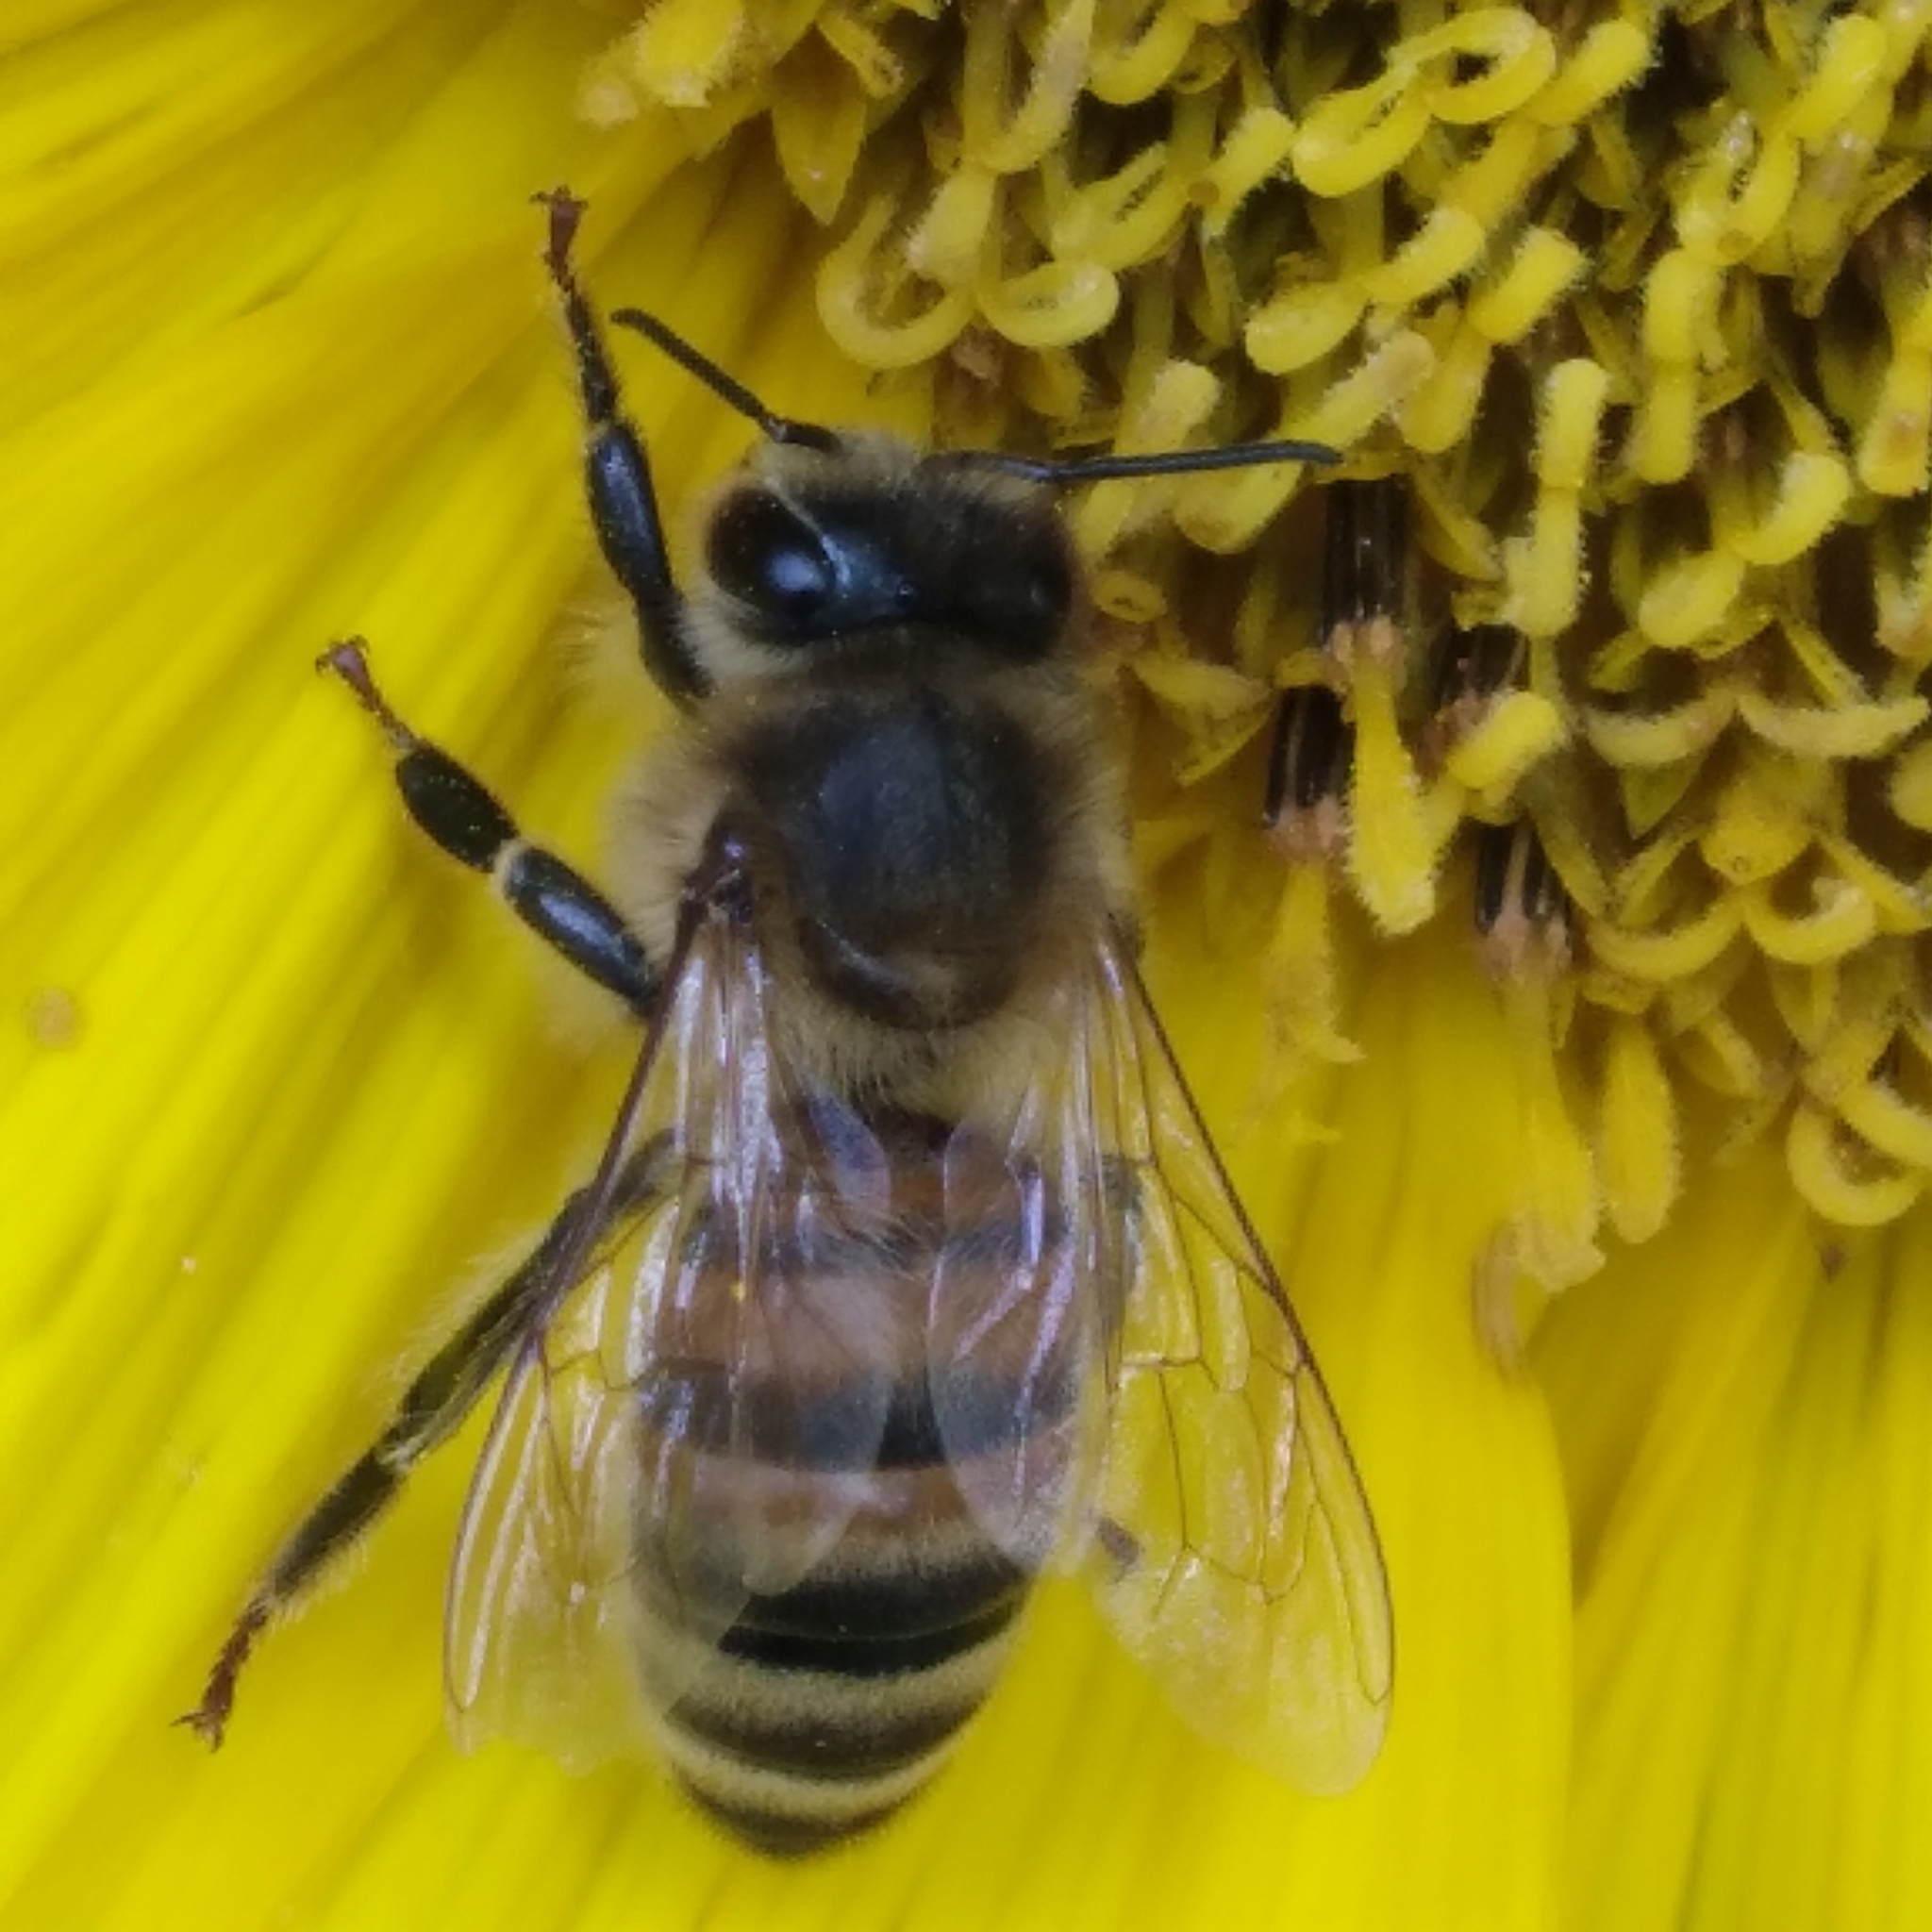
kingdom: Animalia
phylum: Arthropoda
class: Insecta
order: Hymenoptera
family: Apidae
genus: Apis
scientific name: Apis mellifera
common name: Honey bee
